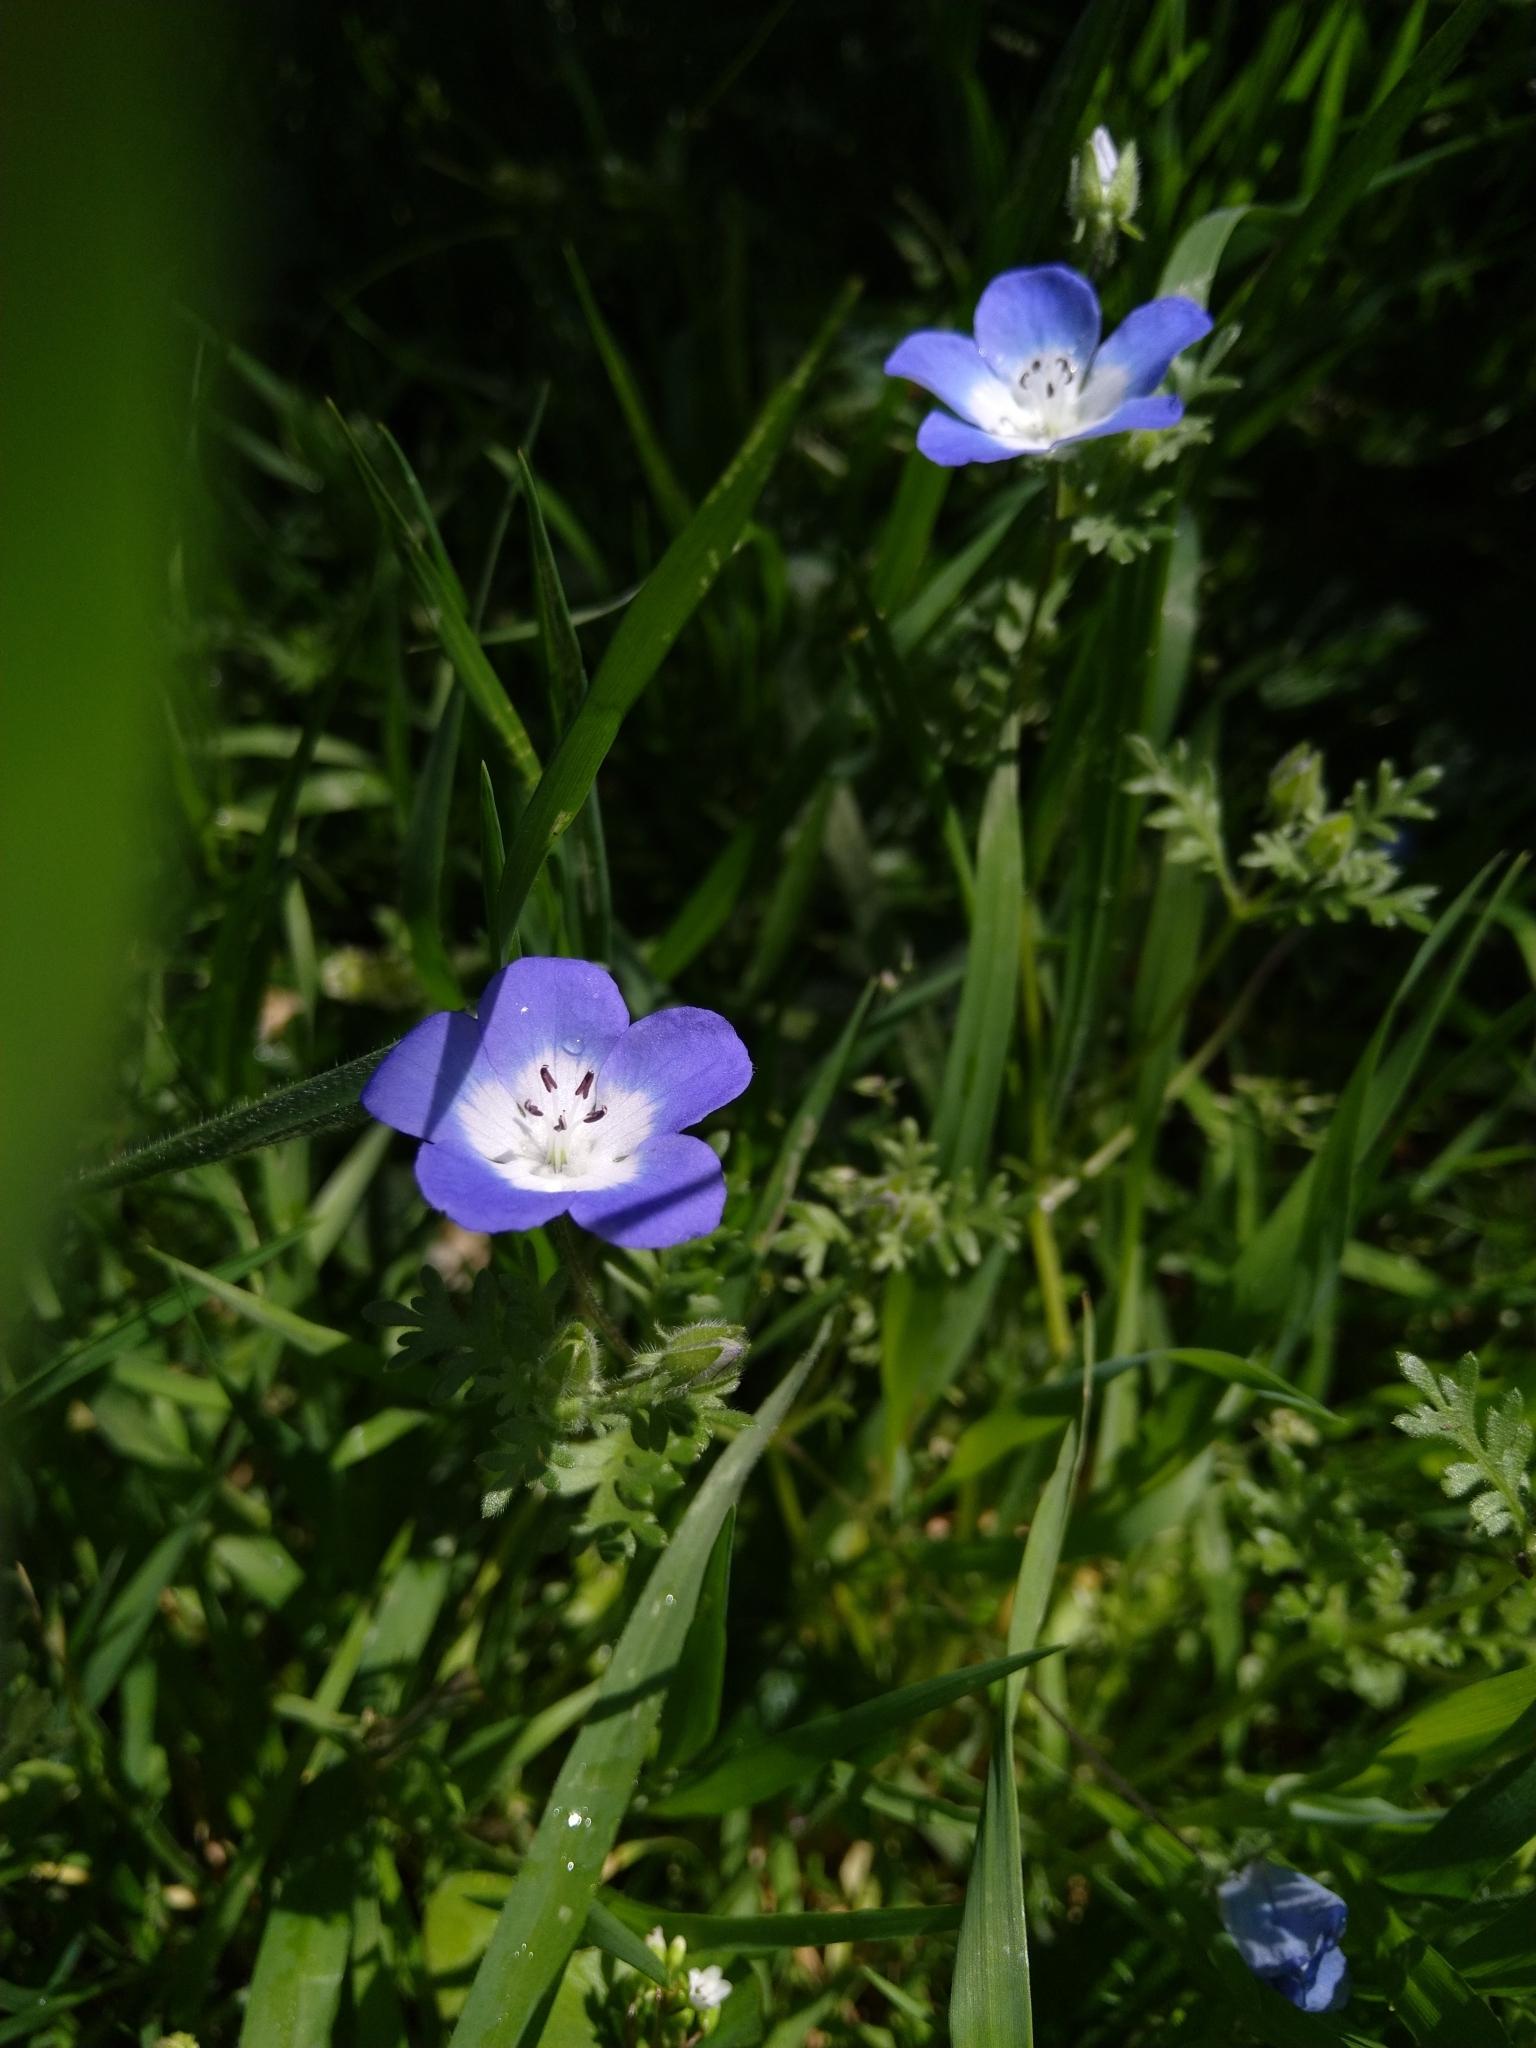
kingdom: Plantae
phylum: Tracheophyta
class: Magnoliopsida
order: Boraginales
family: Hydrophyllaceae
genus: Nemophila
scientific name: Nemophila menziesii
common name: Baby's-blue-eyes
